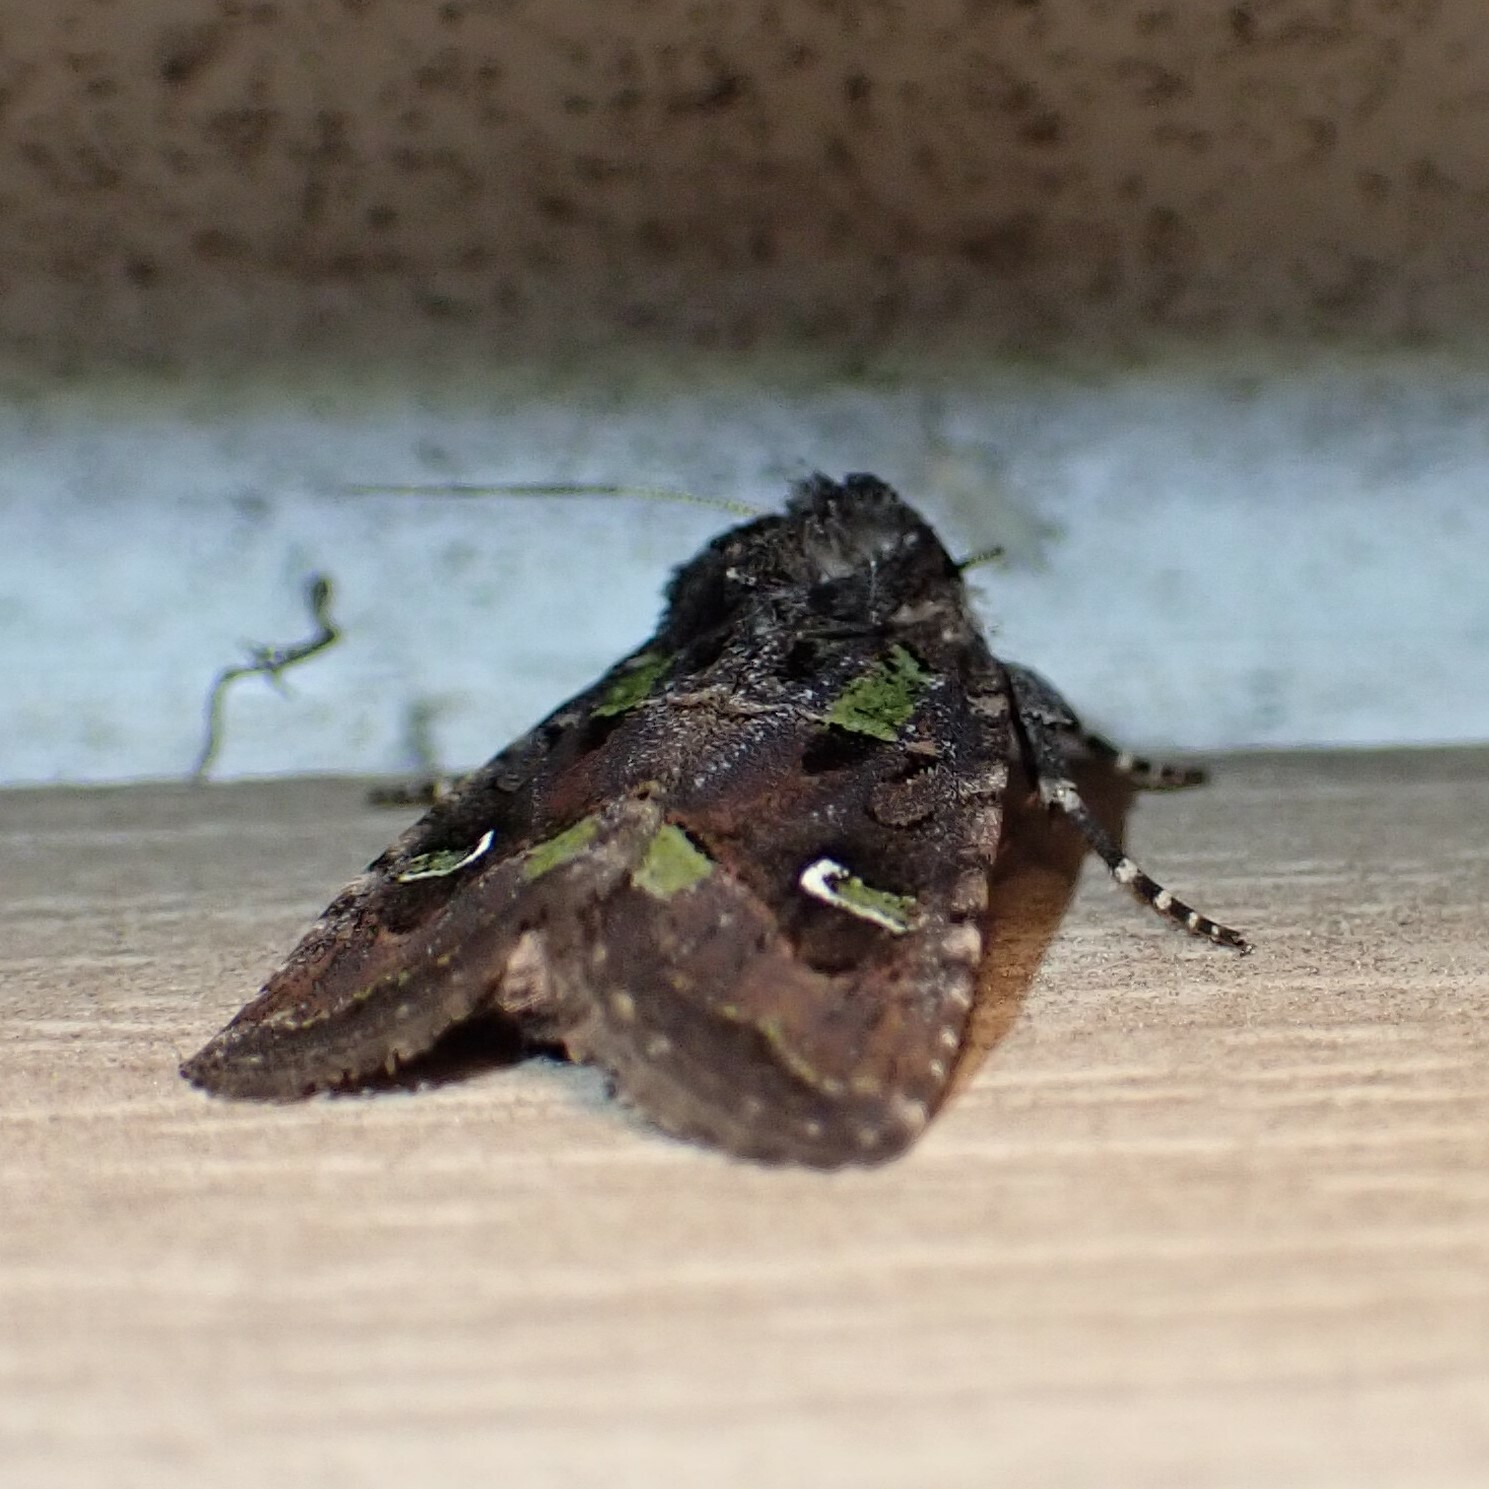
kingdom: Animalia
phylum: Arthropoda
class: Insecta
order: Lepidoptera
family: Noctuidae
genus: Lacinipolia
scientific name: Lacinipolia renigera
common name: Kidney-spotted minor
